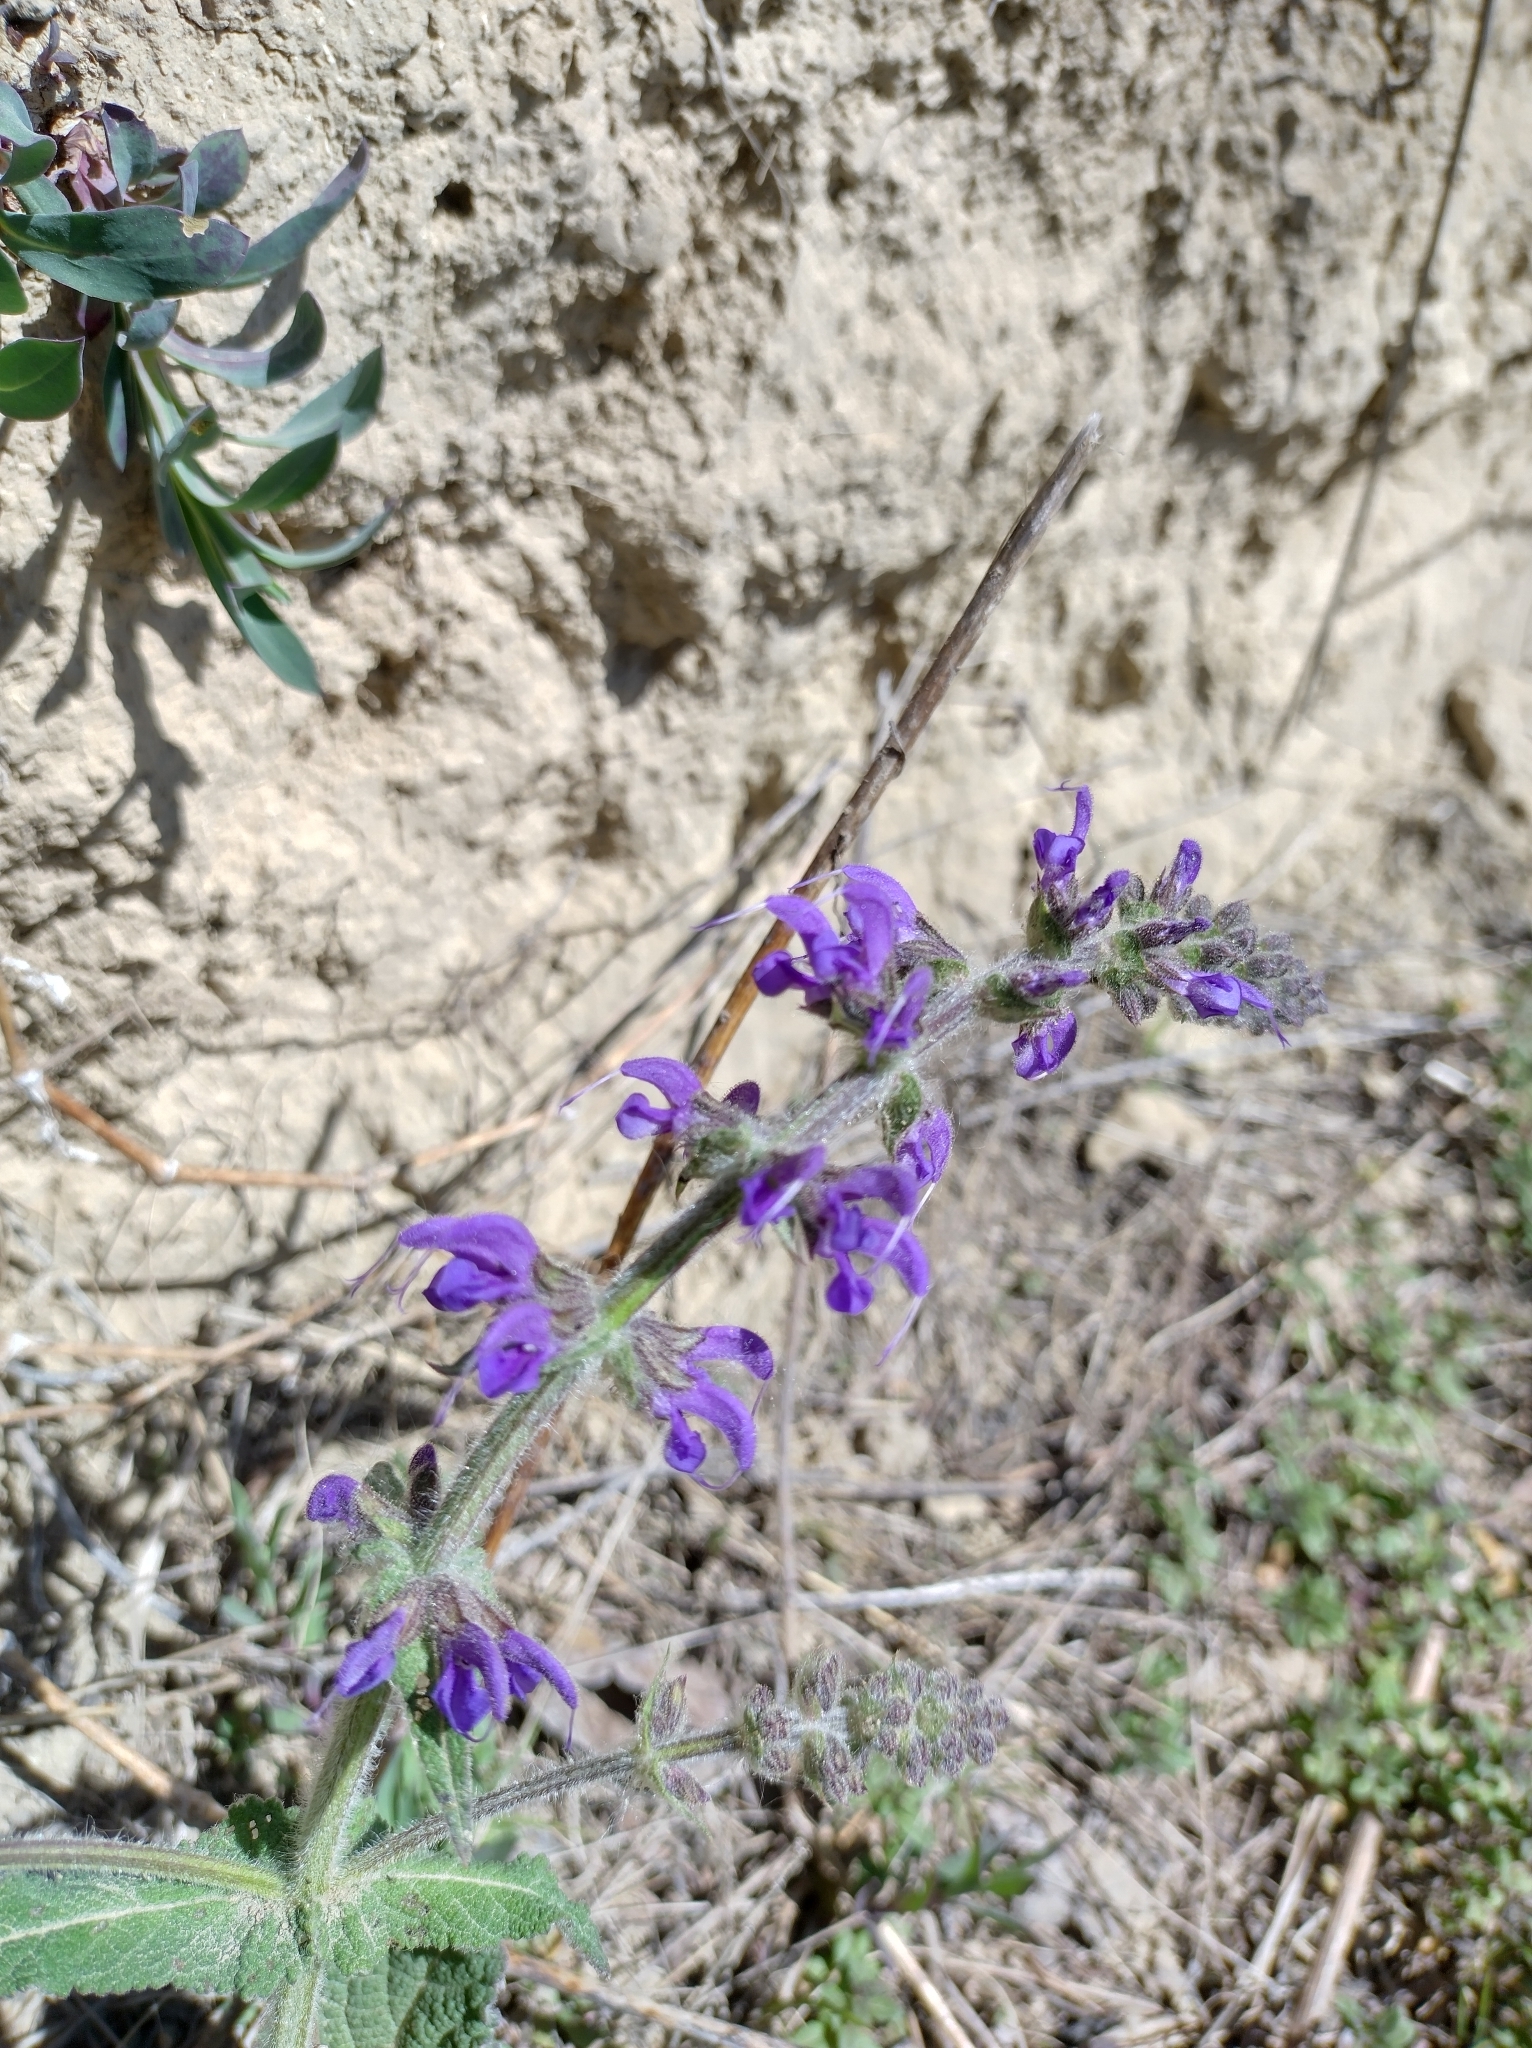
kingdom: Plantae
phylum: Tracheophyta
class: Magnoliopsida
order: Lamiales
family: Lamiaceae
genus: Salvia
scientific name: Salvia pratensis
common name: Meadow sage
